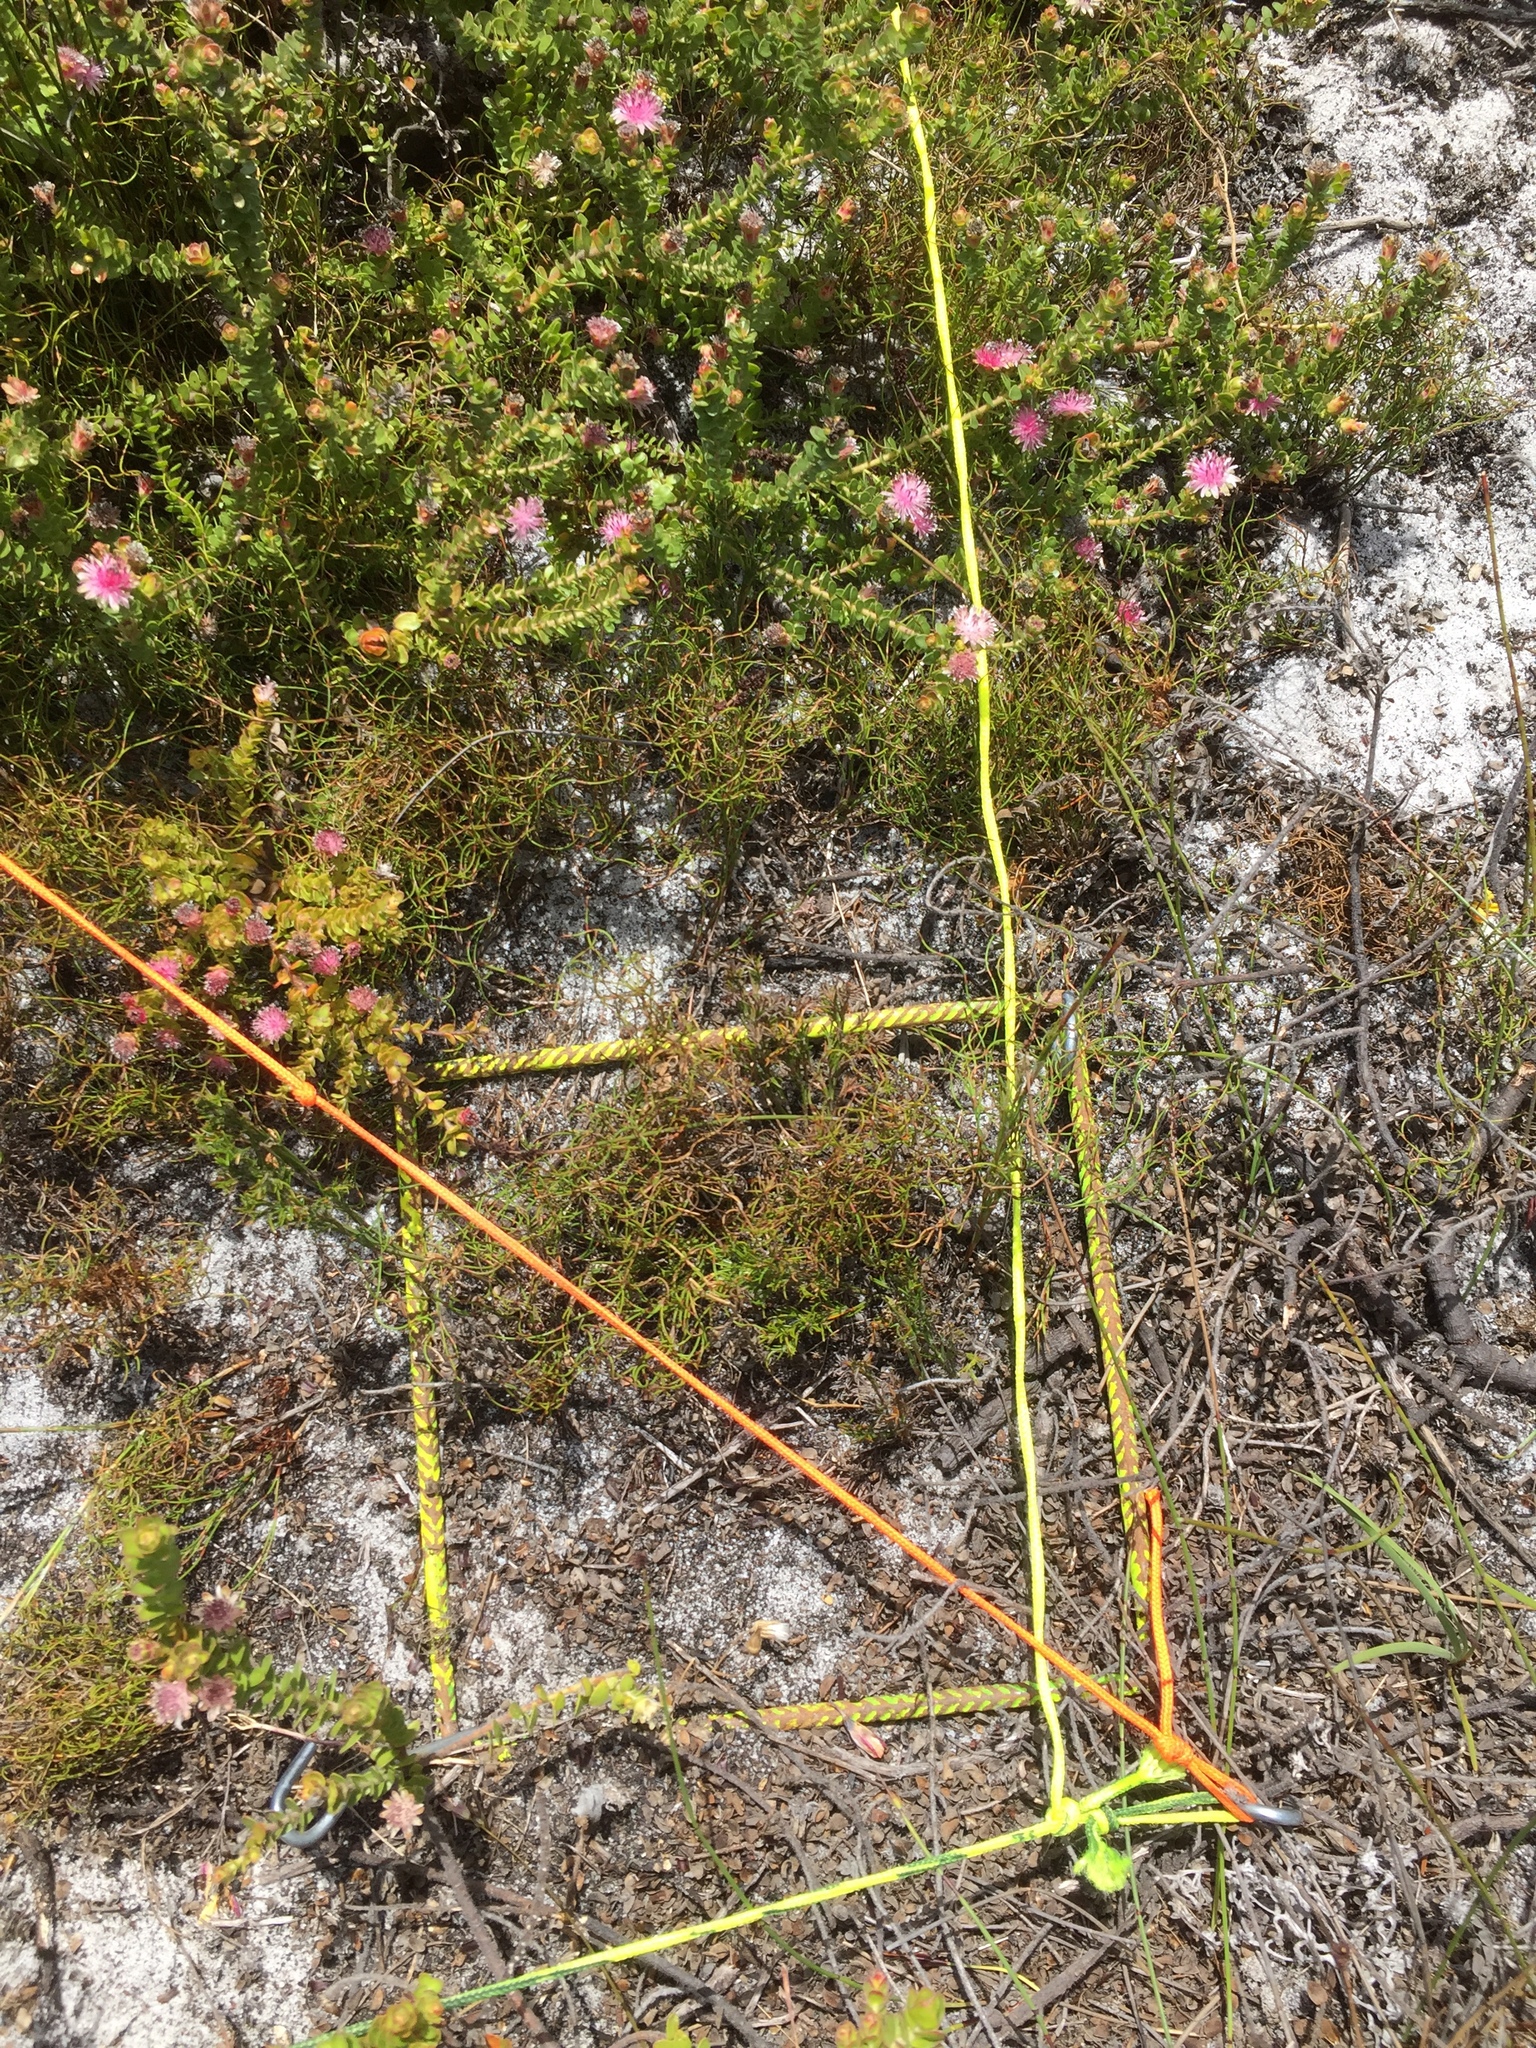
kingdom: Plantae
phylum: Tracheophyta
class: Magnoliopsida
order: Proteales
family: Proteaceae
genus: Diastella
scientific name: Diastella divaricata
